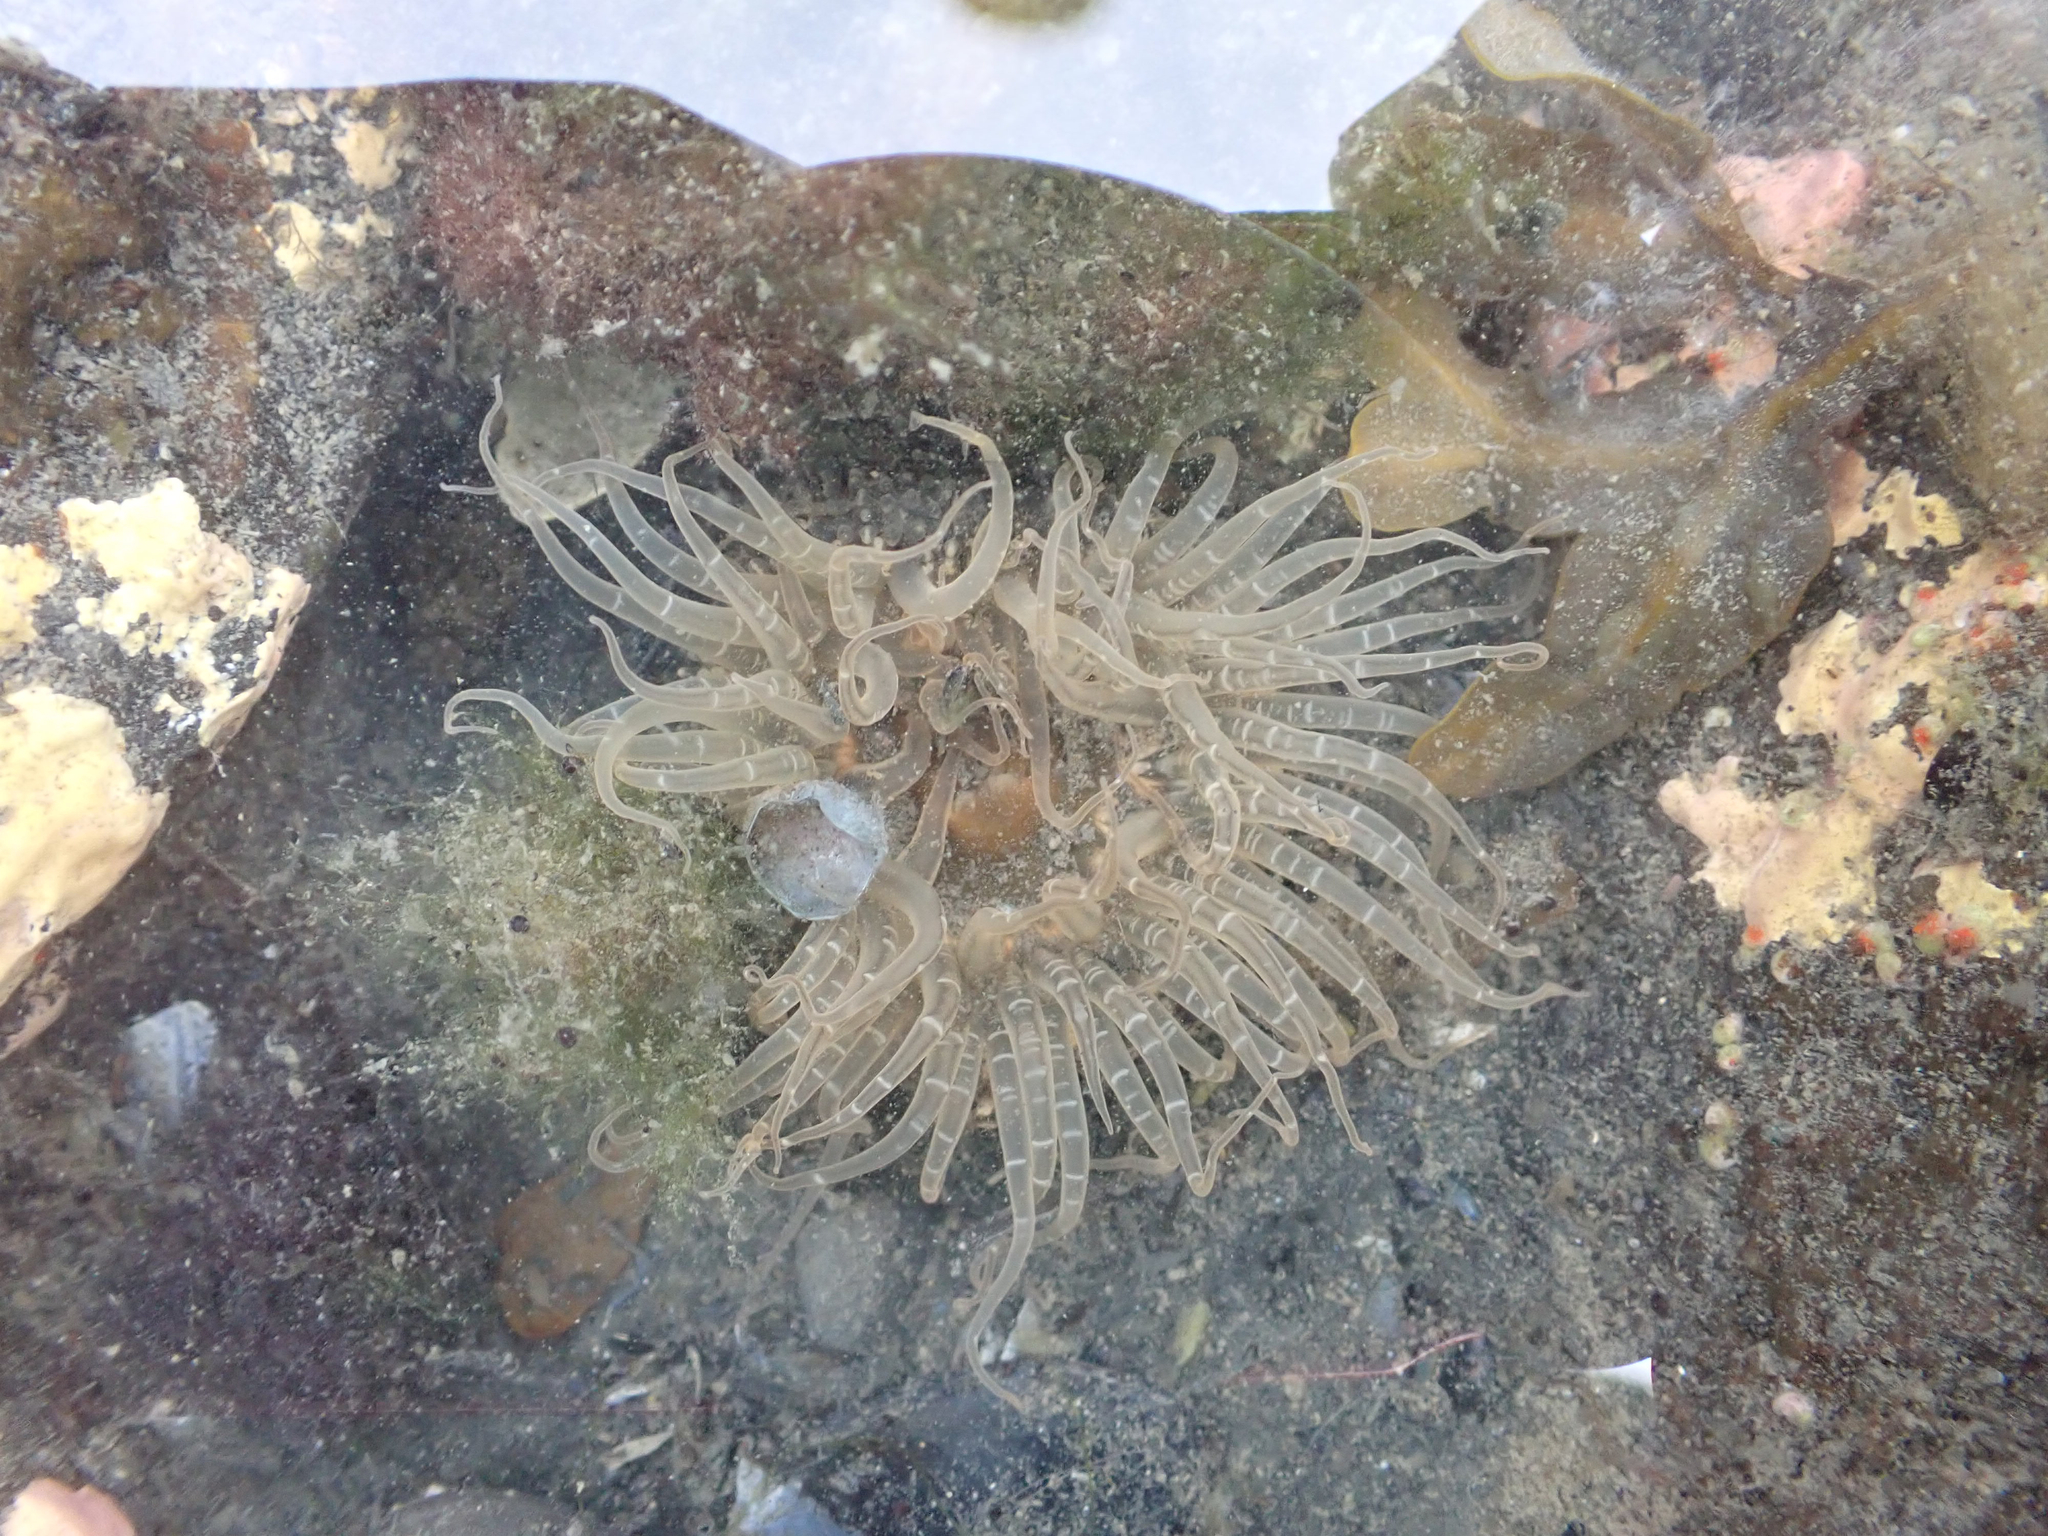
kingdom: Animalia
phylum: Cnidaria
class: Anthozoa
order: Actiniaria
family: Actiniidae
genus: Anthopleura
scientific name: Anthopleura artemisia
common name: Buried sea anemone
